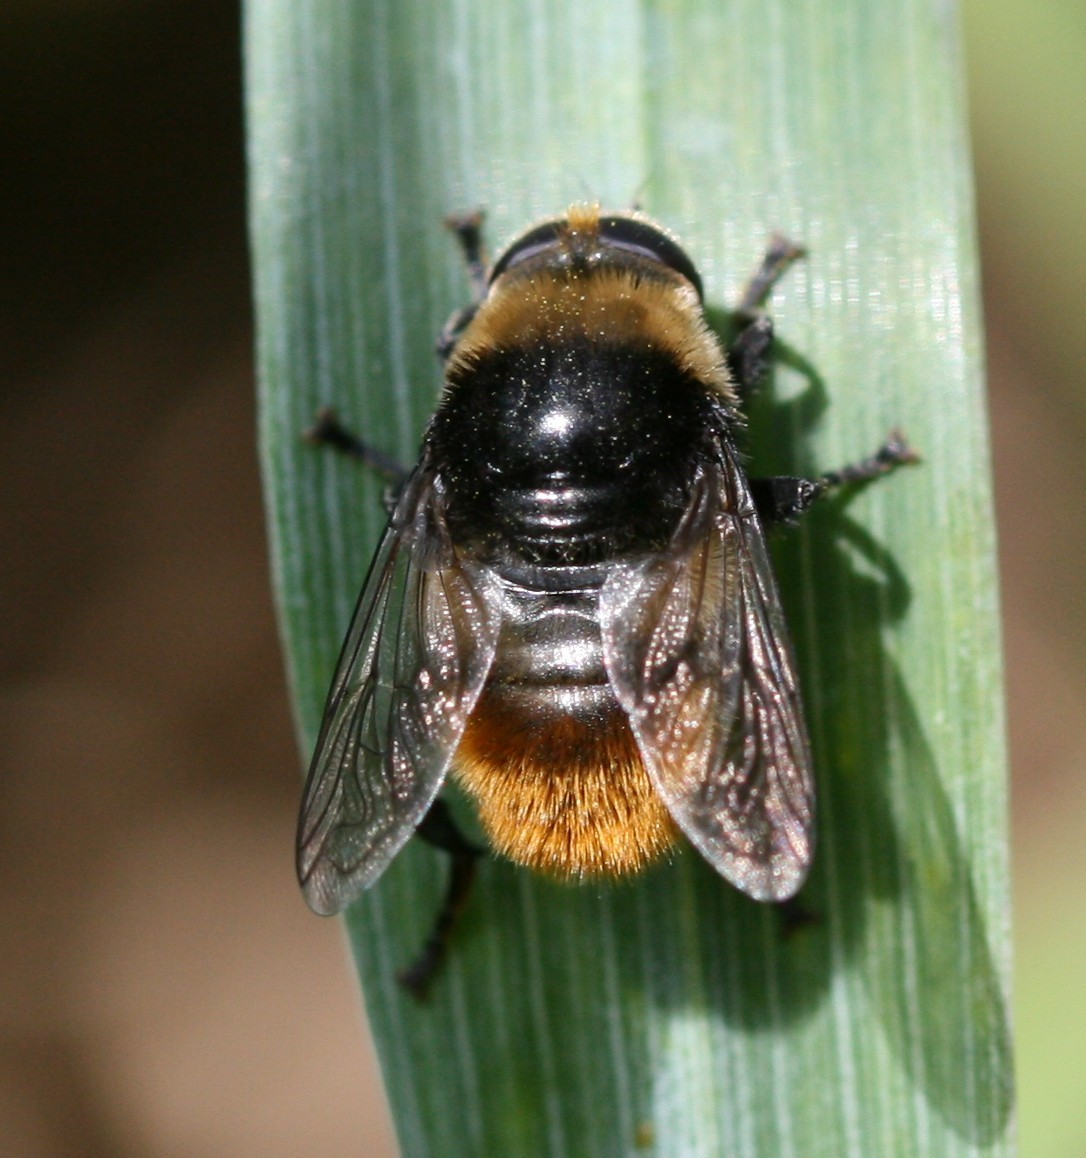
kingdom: Animalia
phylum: Arthropoda
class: Insecta
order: Diptera
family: Syrphidae
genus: Merodon
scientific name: Merodon equestris
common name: Greater bulb-fly
